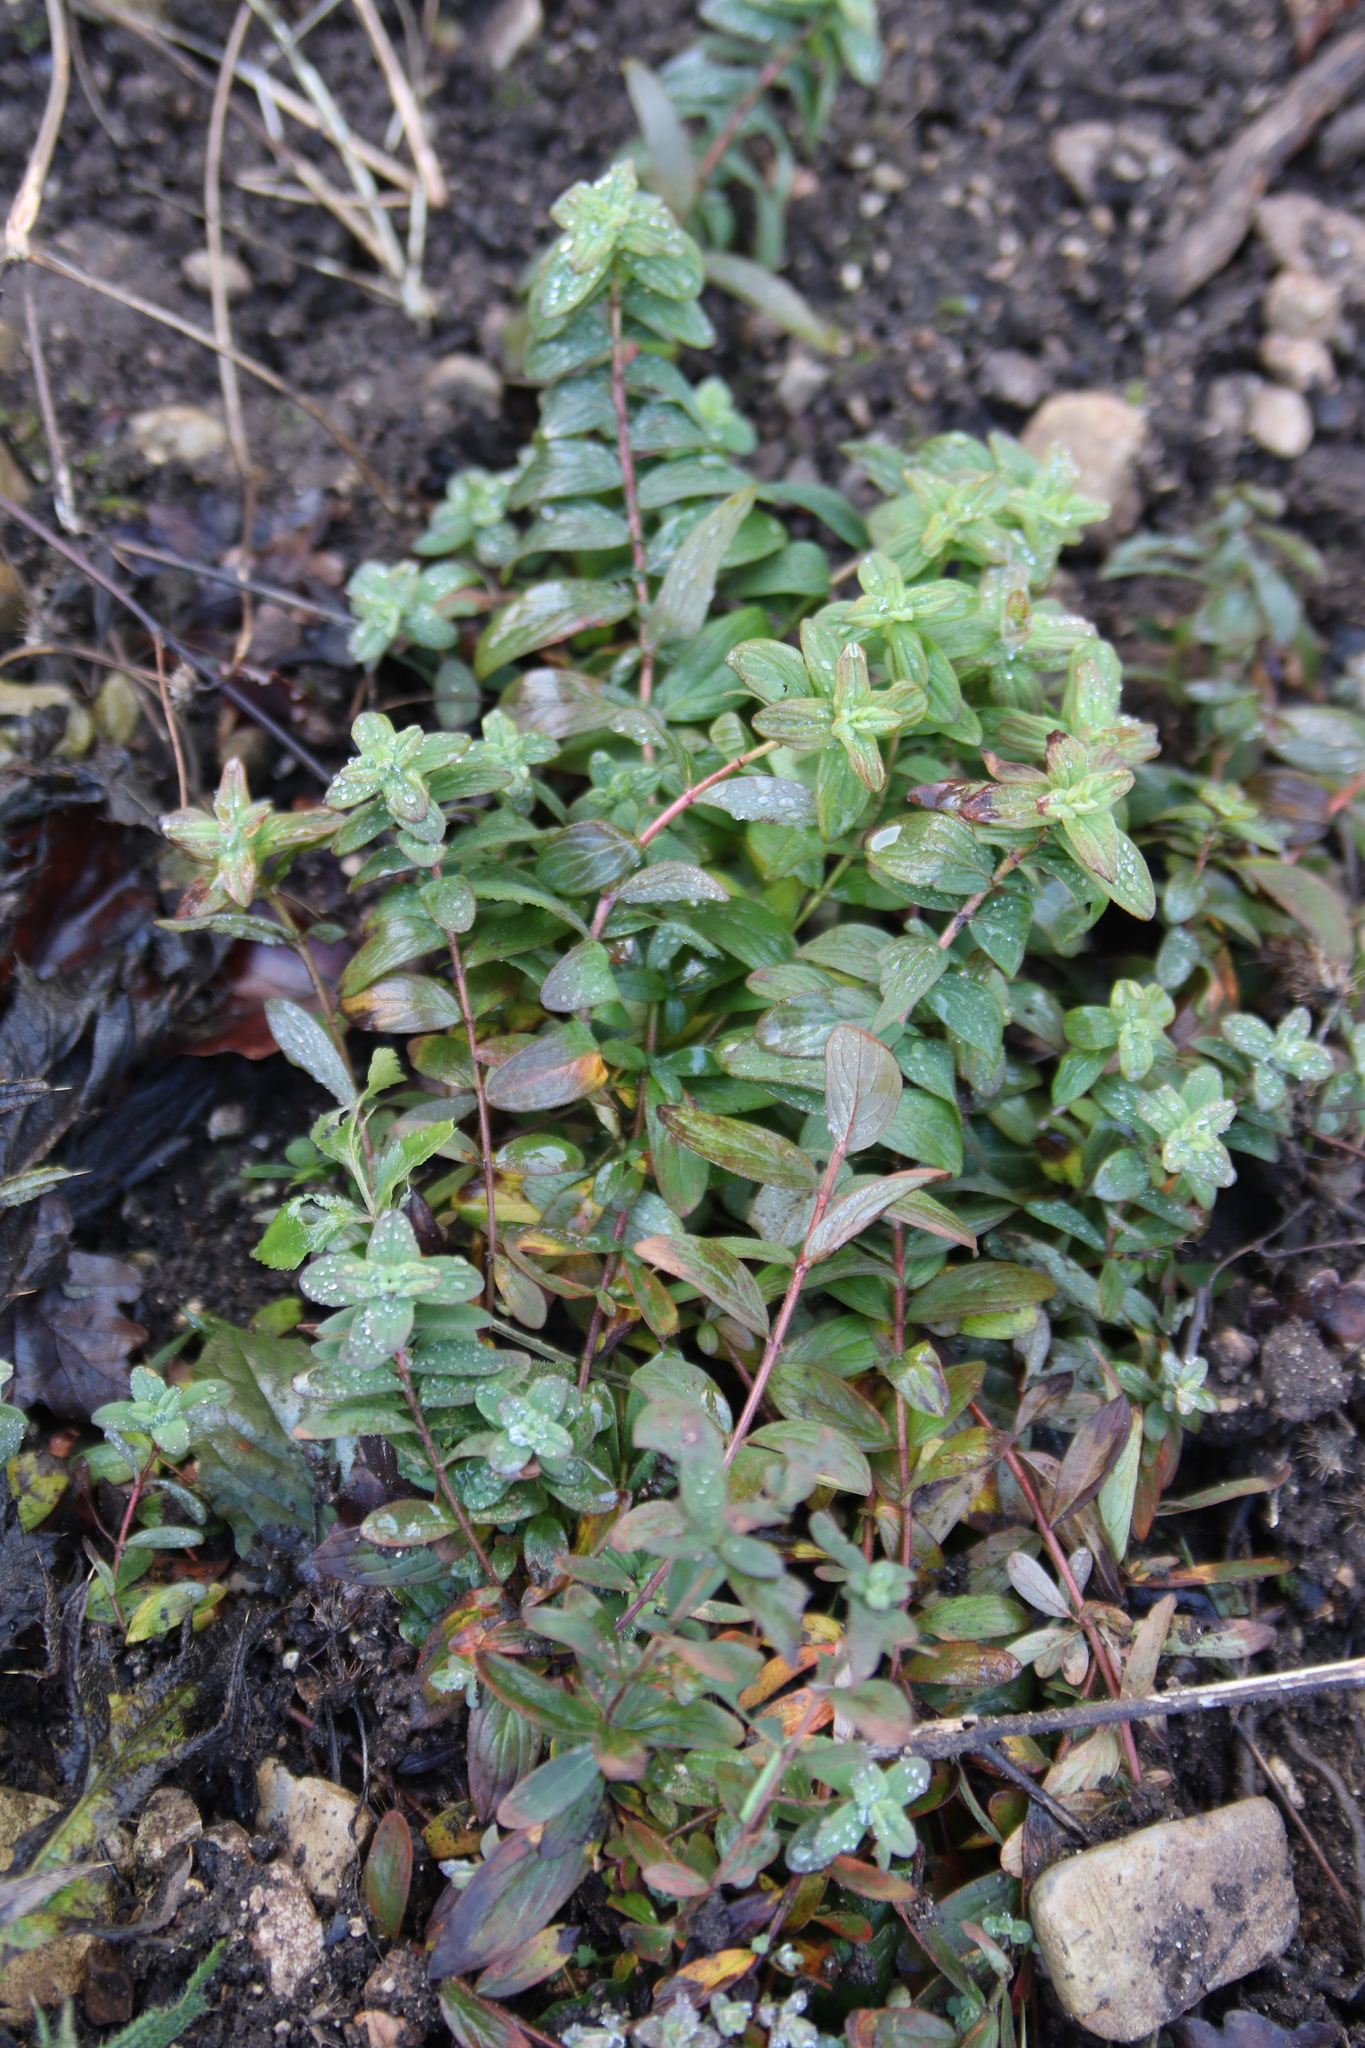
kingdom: Plantae
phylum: Tracheophyta
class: Magnoliopsida
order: Malpighiales
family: Hypericaceae
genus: Hypericum
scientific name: Hypericum hirsutum
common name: Hairy st. john's-wort
